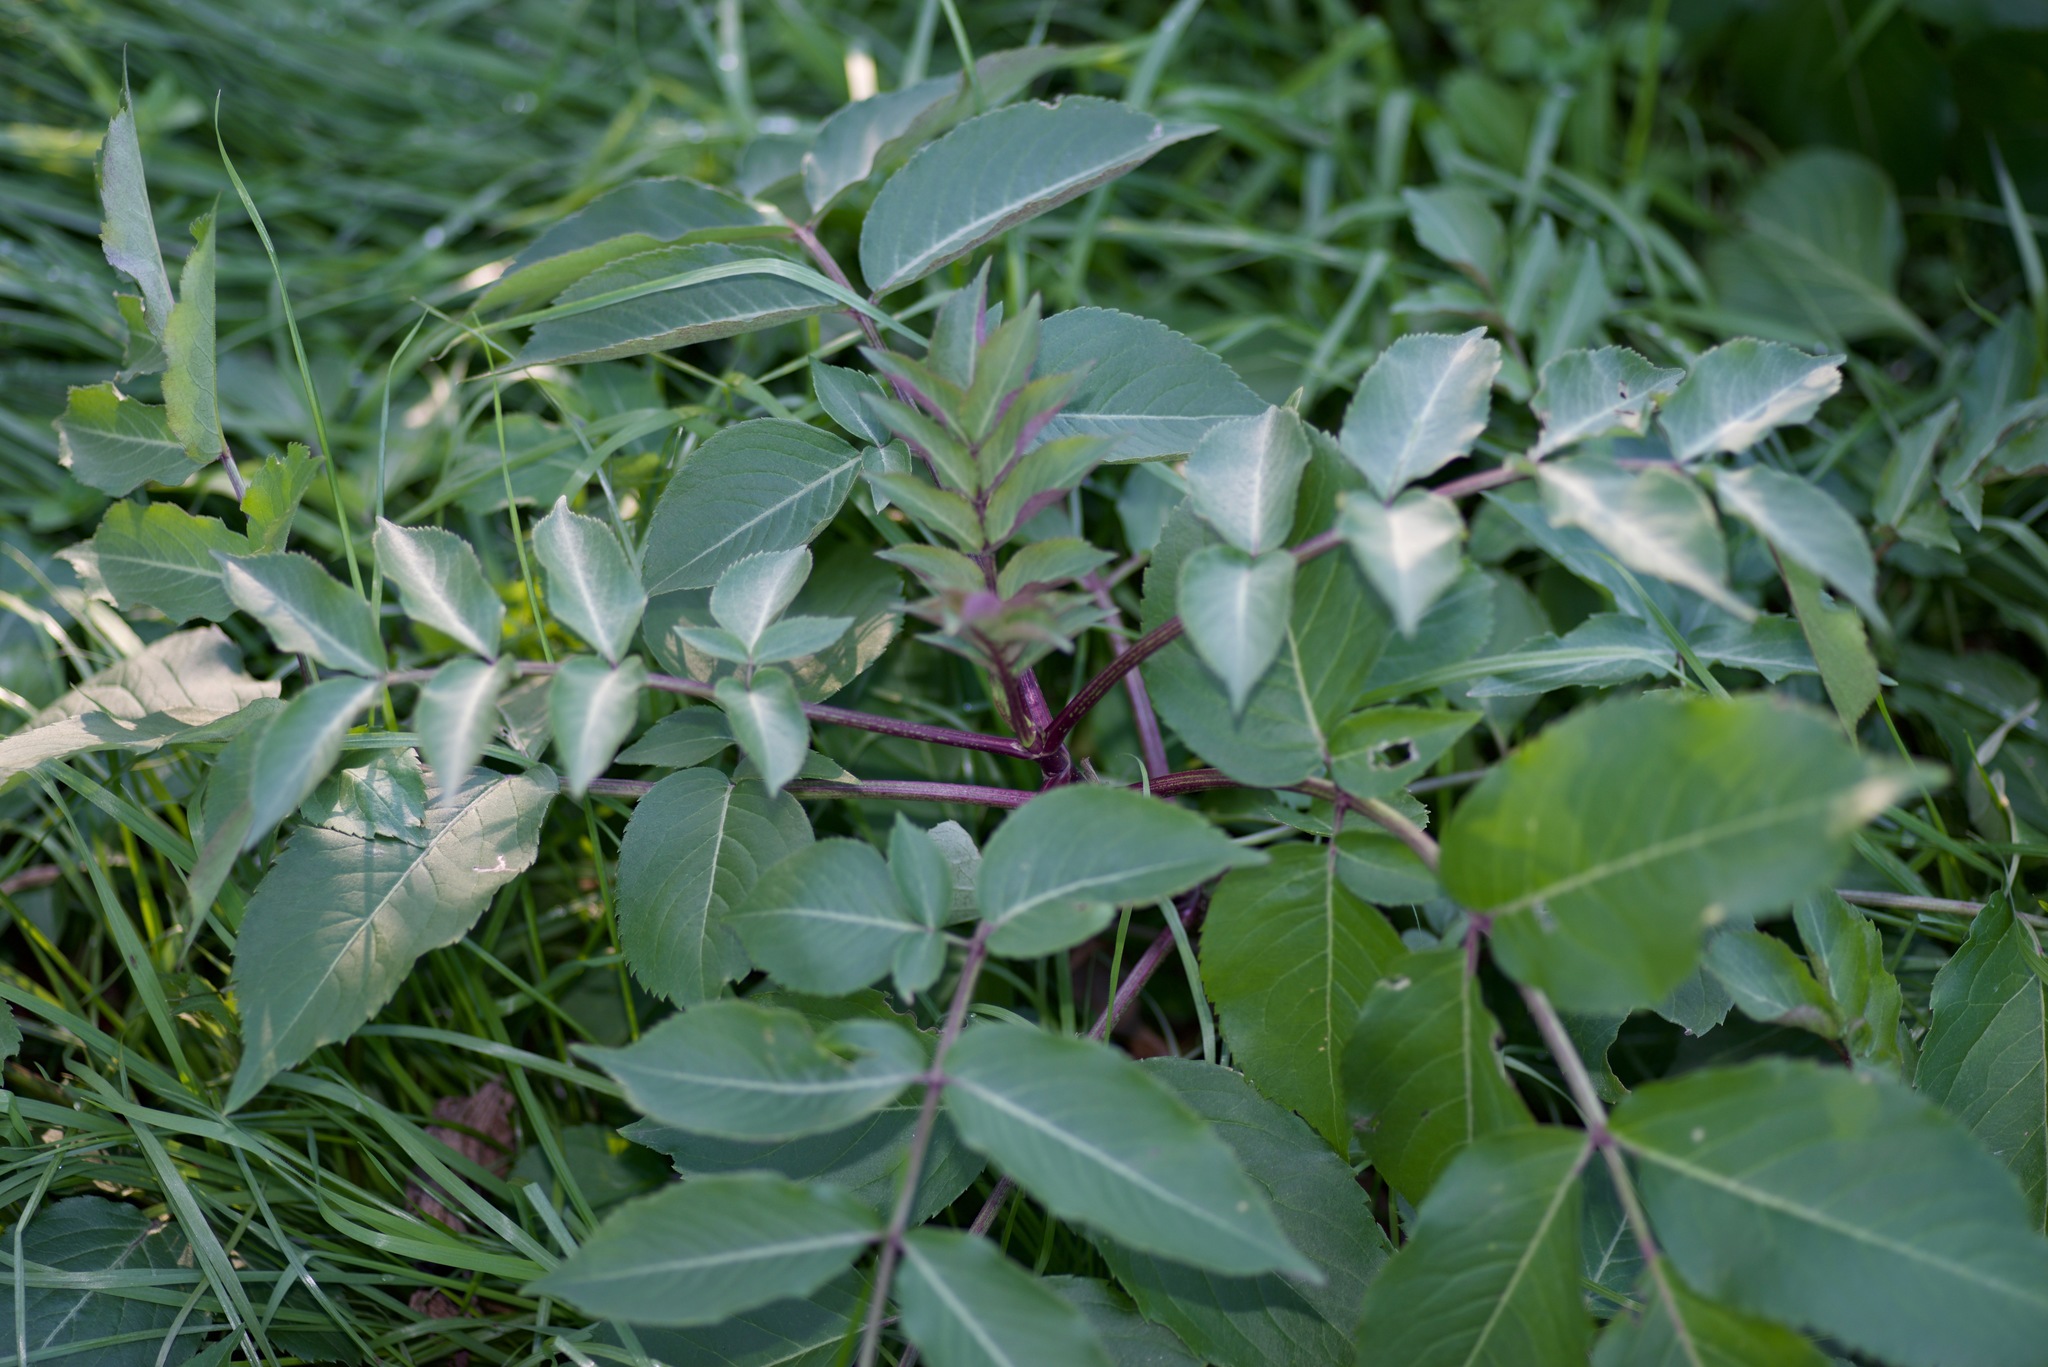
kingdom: Plantae
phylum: Tracheophyta
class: Magnoliopsida
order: Dipsacales
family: Viburnaceae
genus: Sambucus
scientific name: Sambucus canadensis
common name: American elder
